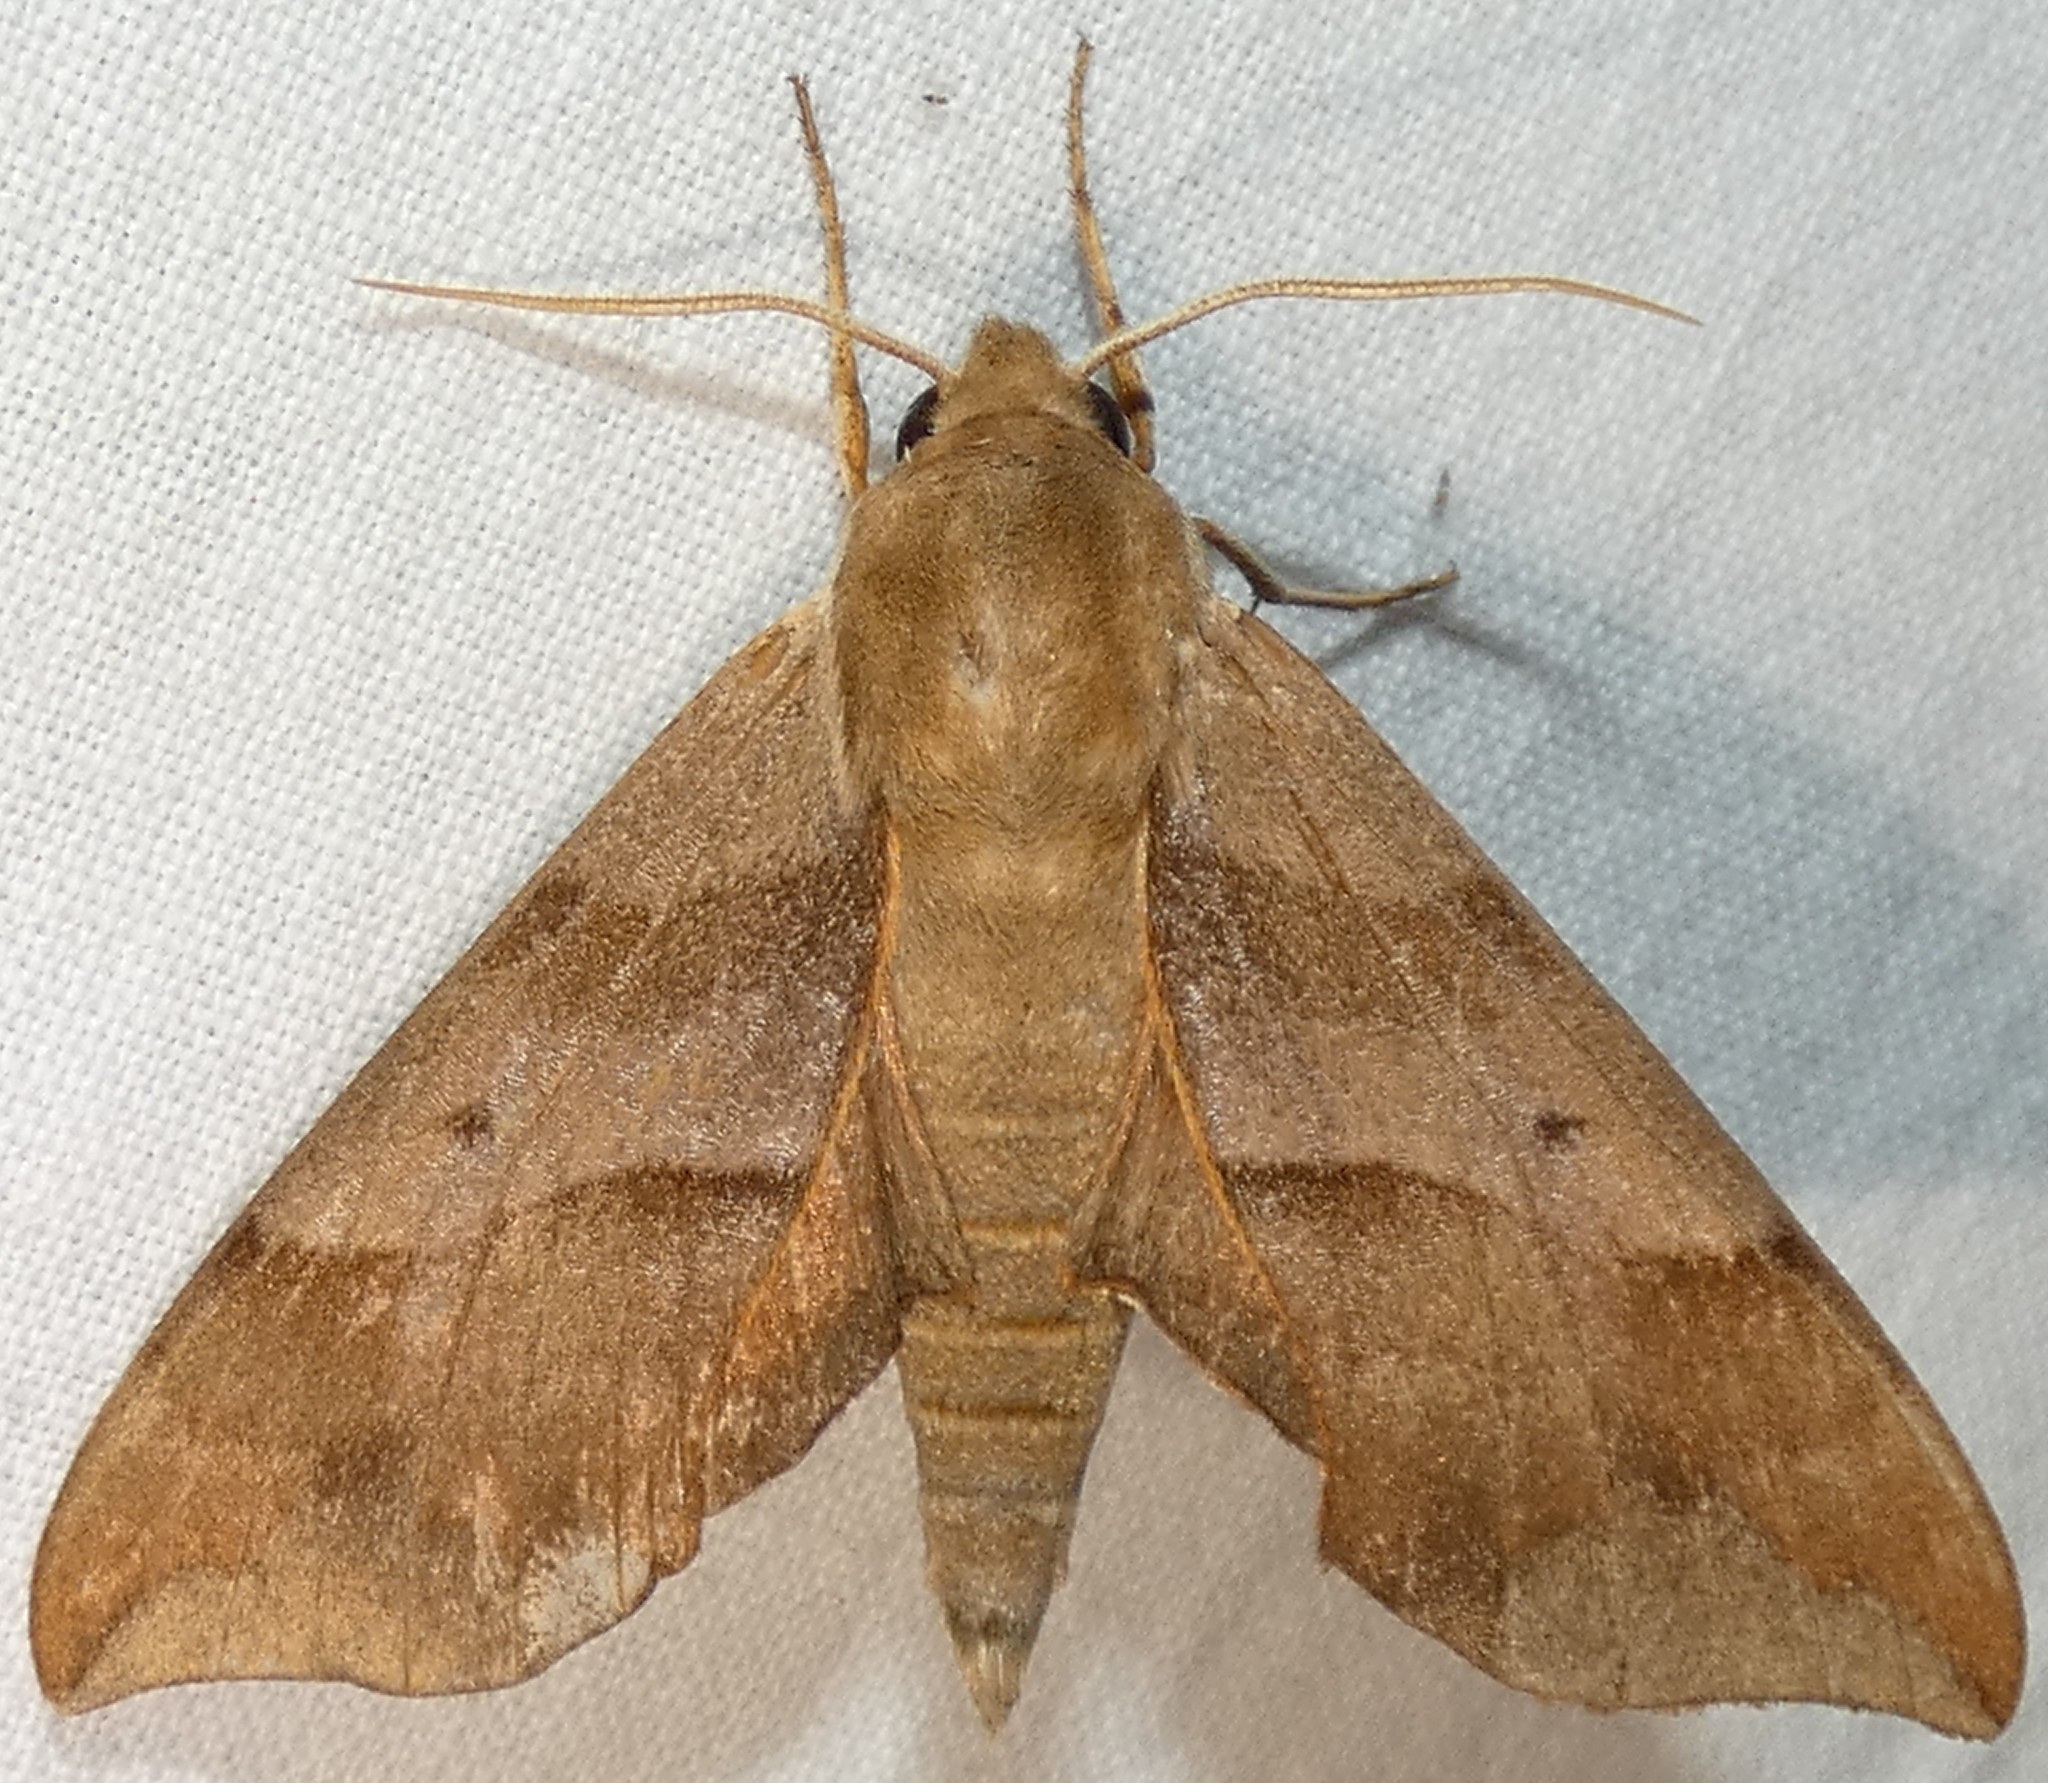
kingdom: Animalia
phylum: Arthropoda
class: Insecta
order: Lepidoptera
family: Sphingidae
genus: Darapsa
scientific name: Darapsa myron
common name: Hog sphinx
